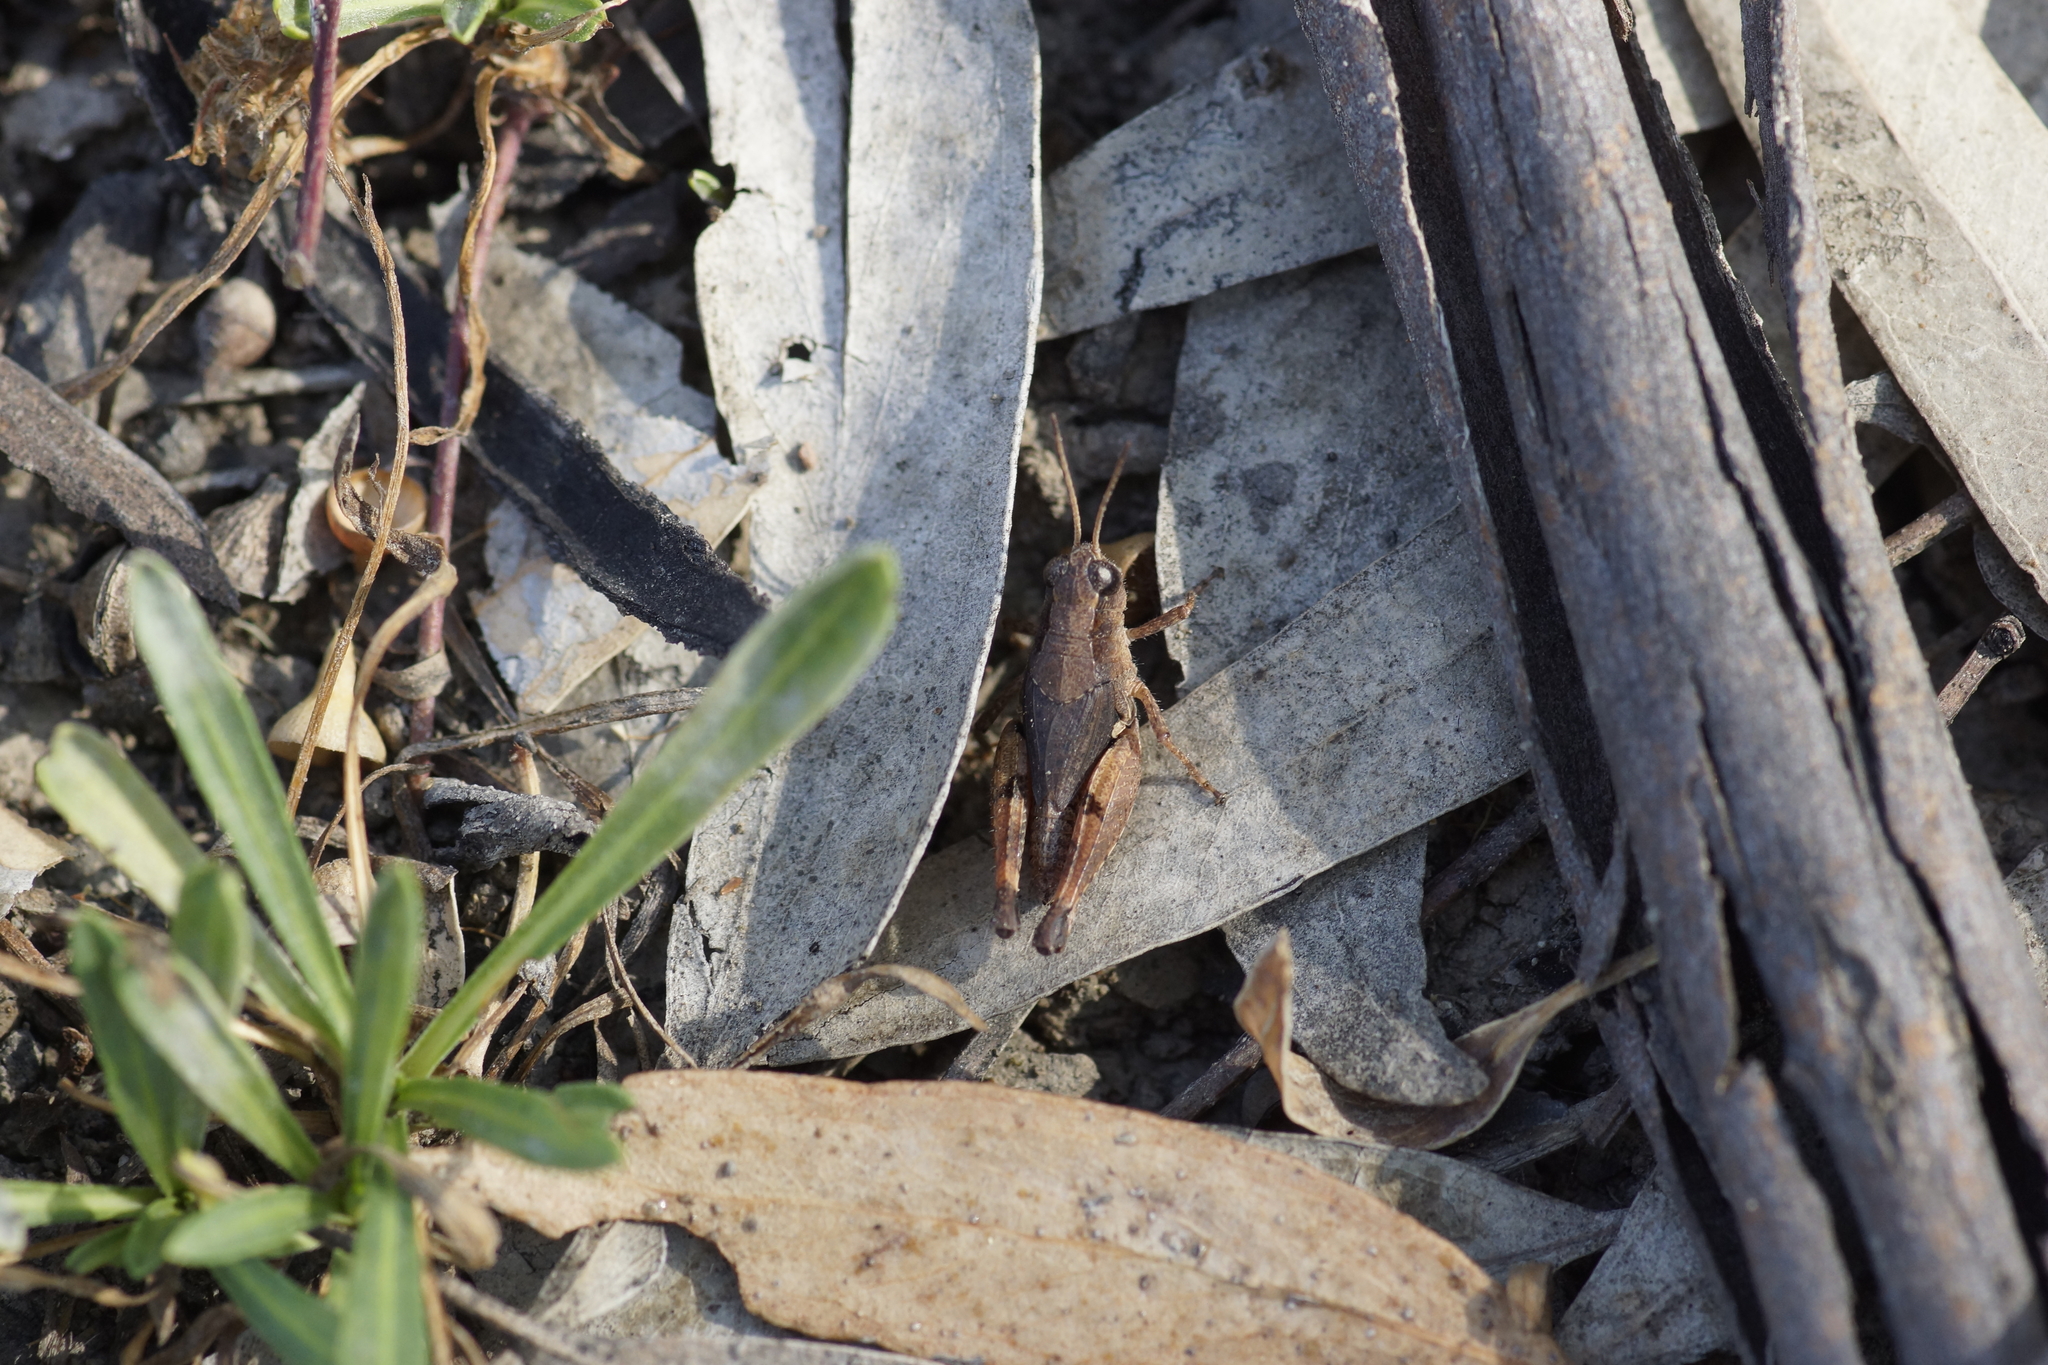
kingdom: Animalia
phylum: Arthropoda
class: Insecta
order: Orthoptera
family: Acrididae
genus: Phaulacridium
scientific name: Phaulacridium vittatum
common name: Wingless grasshopper
